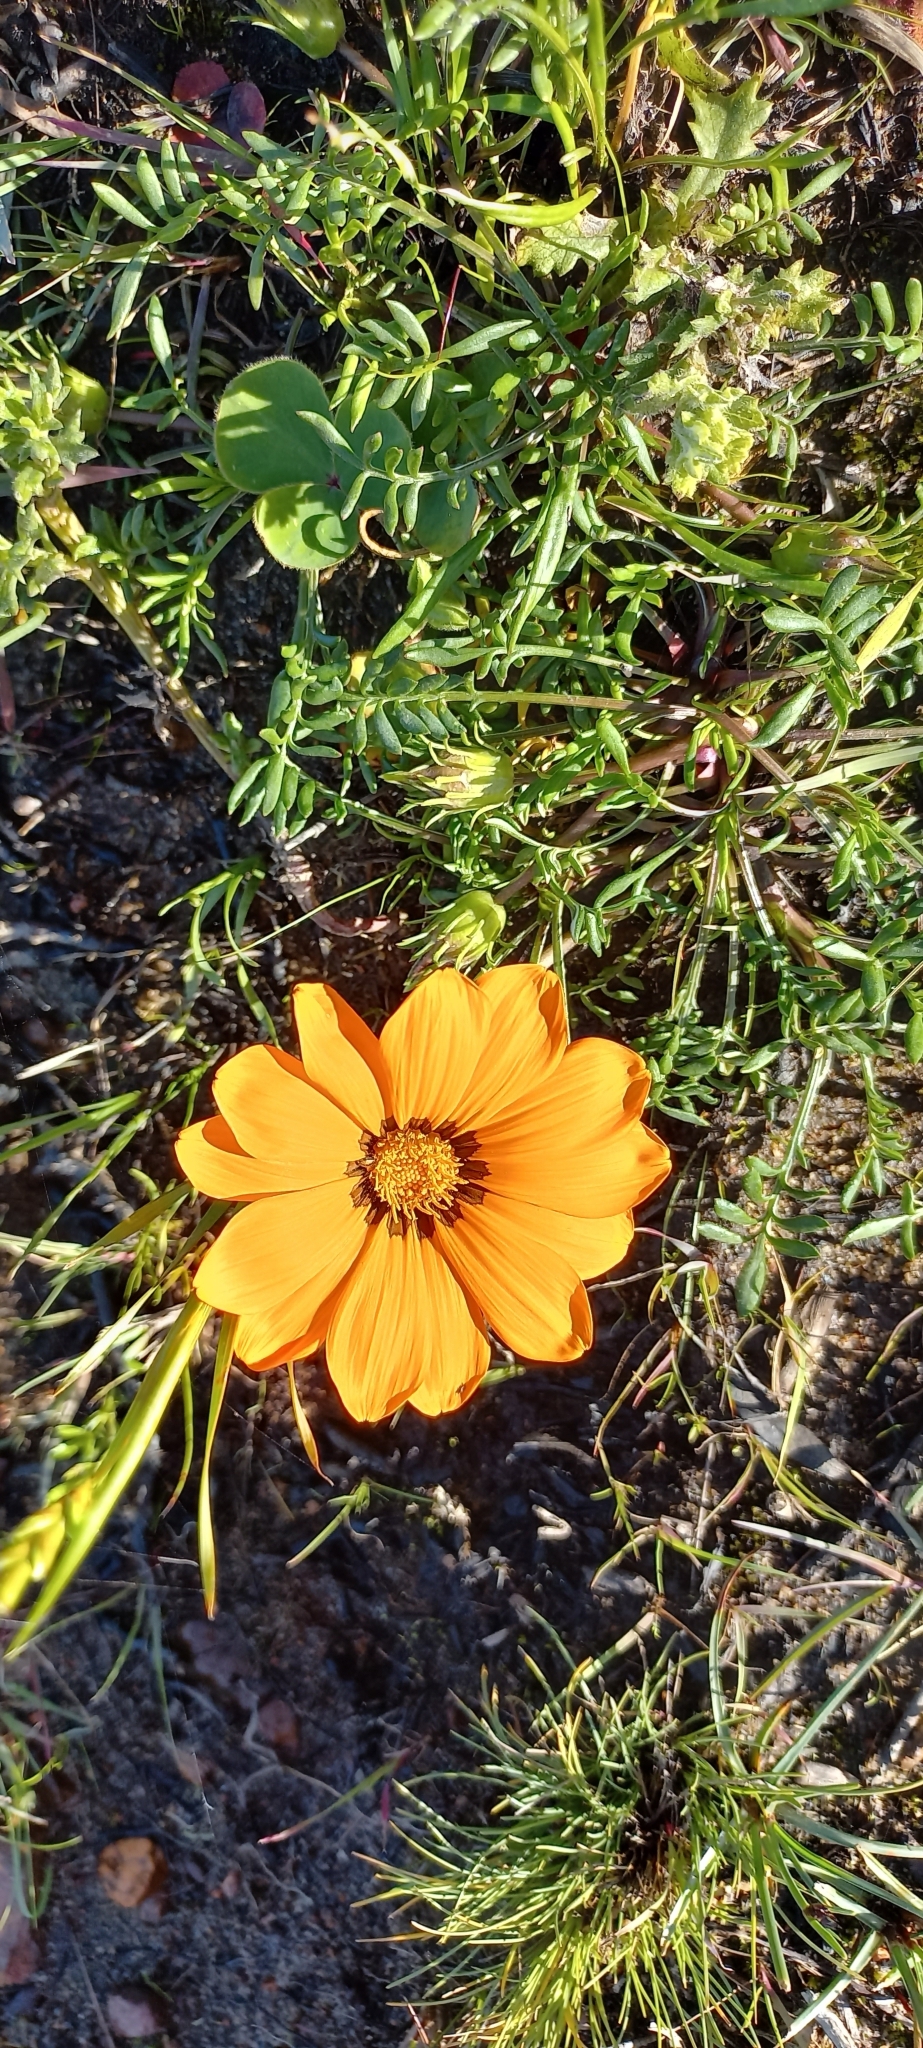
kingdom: Plantae
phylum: Tracheophyta
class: Magnoliopsida
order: Asterales
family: Asteraceae
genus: Gazania
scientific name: Gazania pectinata
